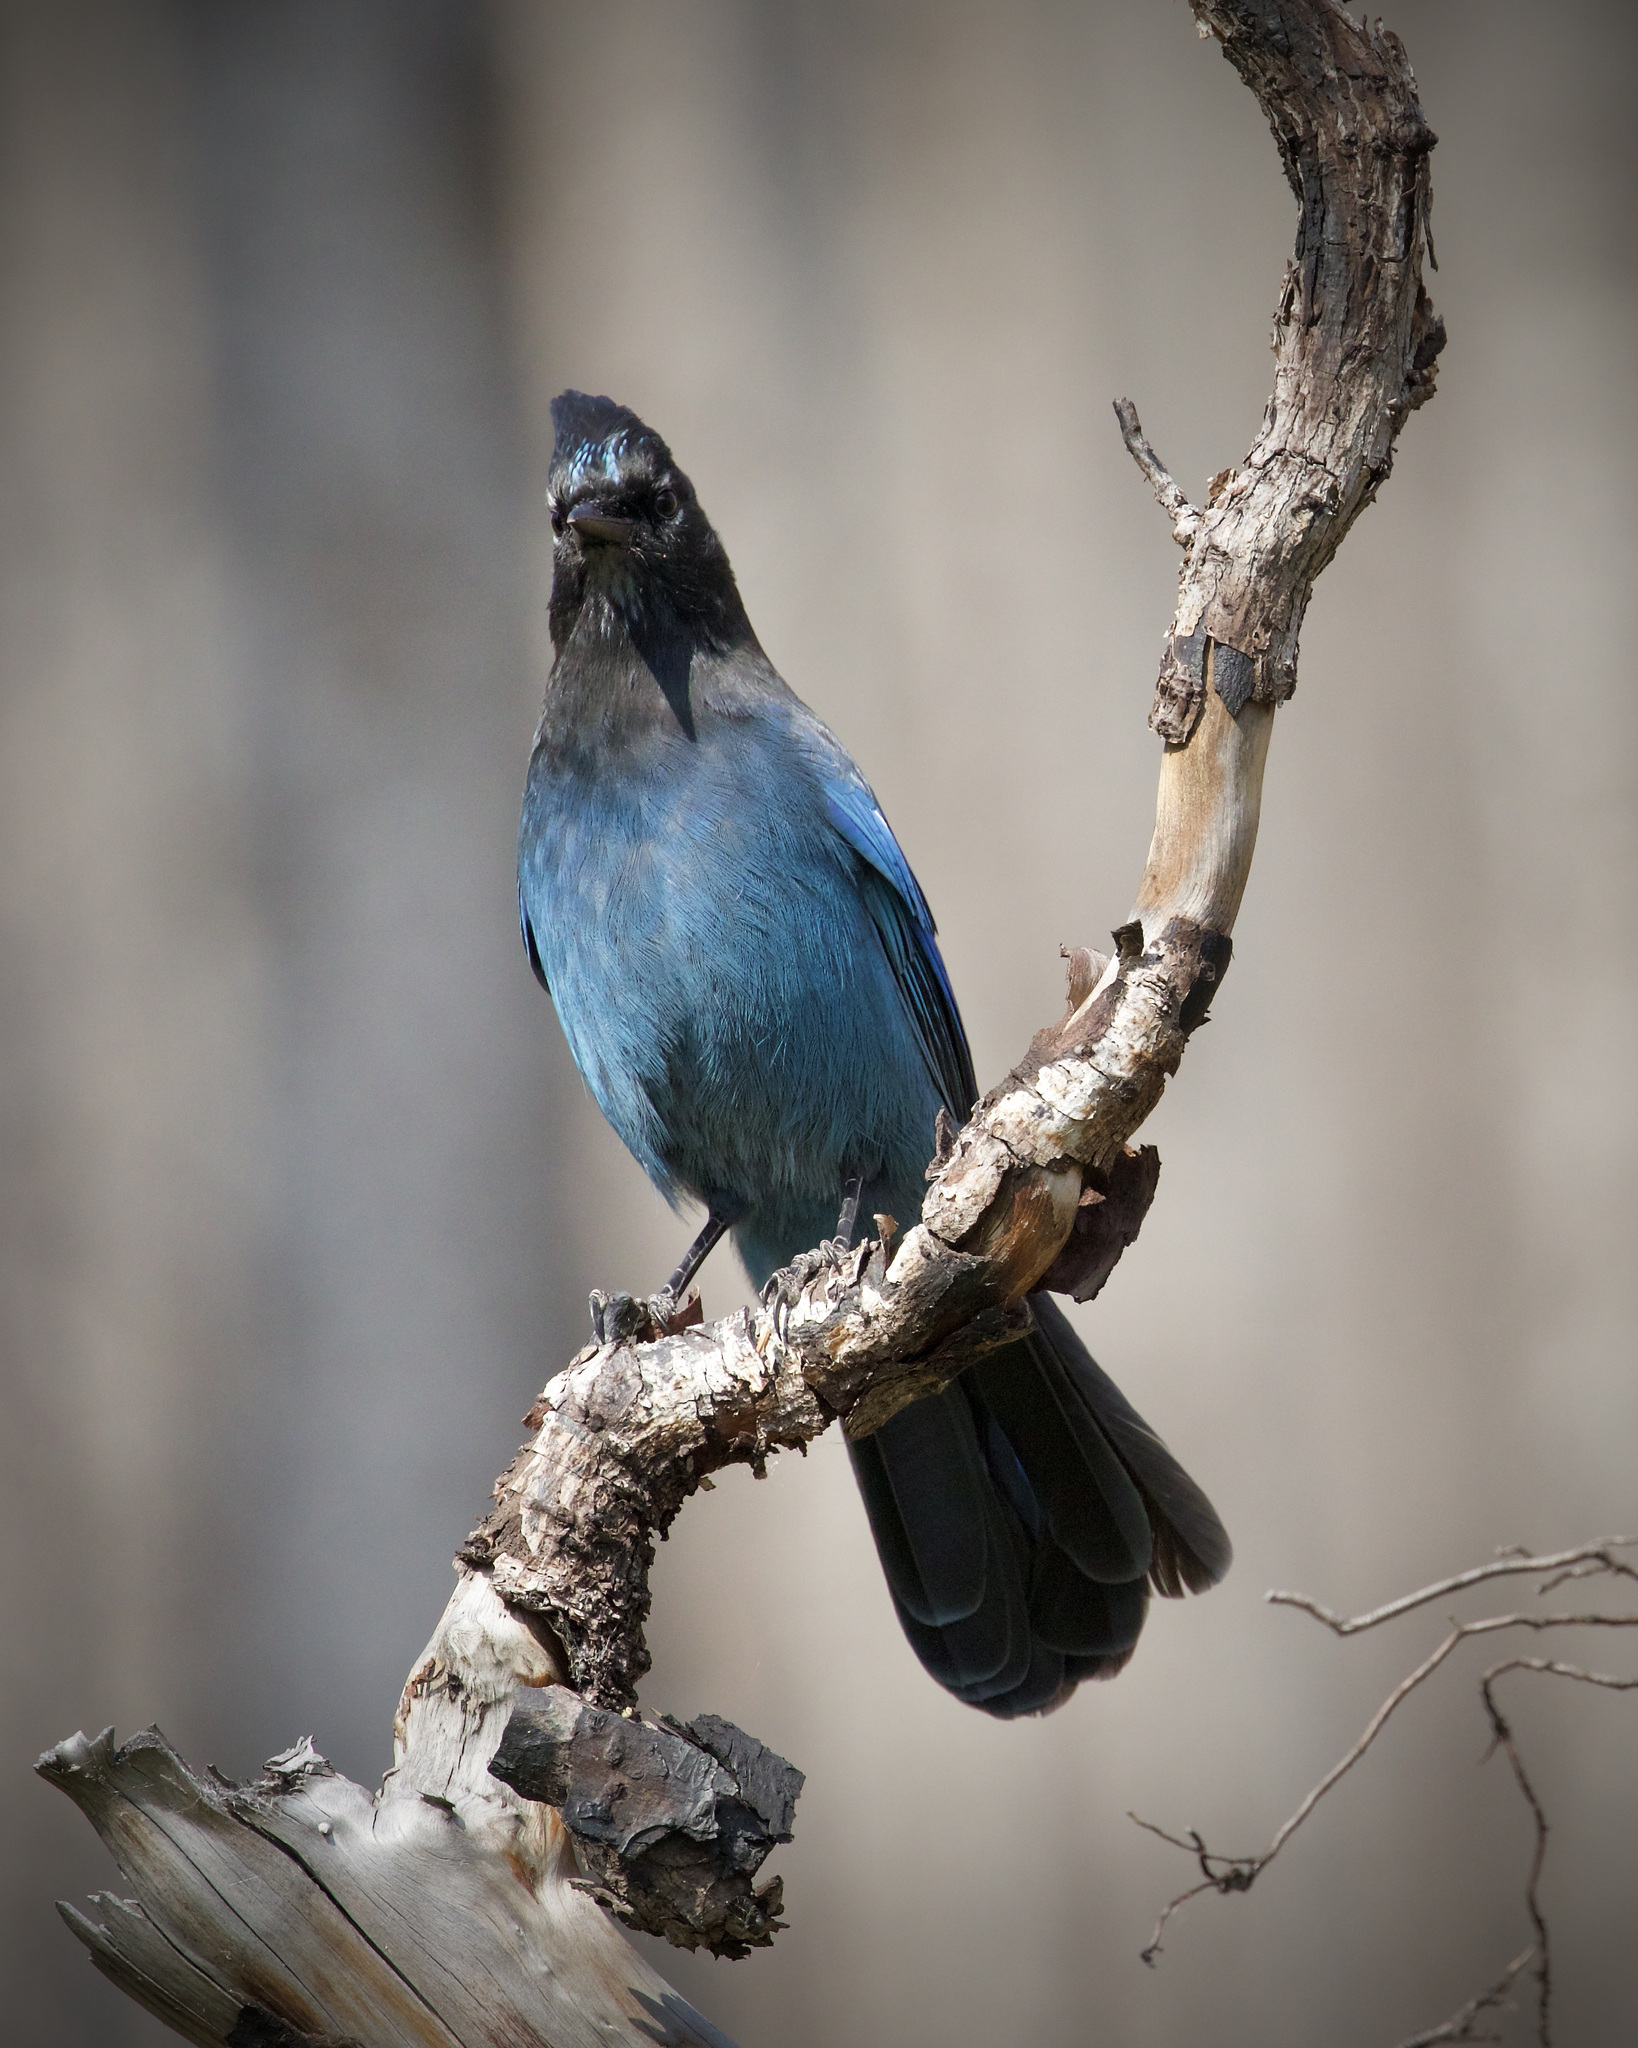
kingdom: Animalia
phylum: Chordata
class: Aves
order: Passeriformes
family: Corvidae
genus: Cyanocitta
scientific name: Cyanocitta stelleri
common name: Steller's jay
